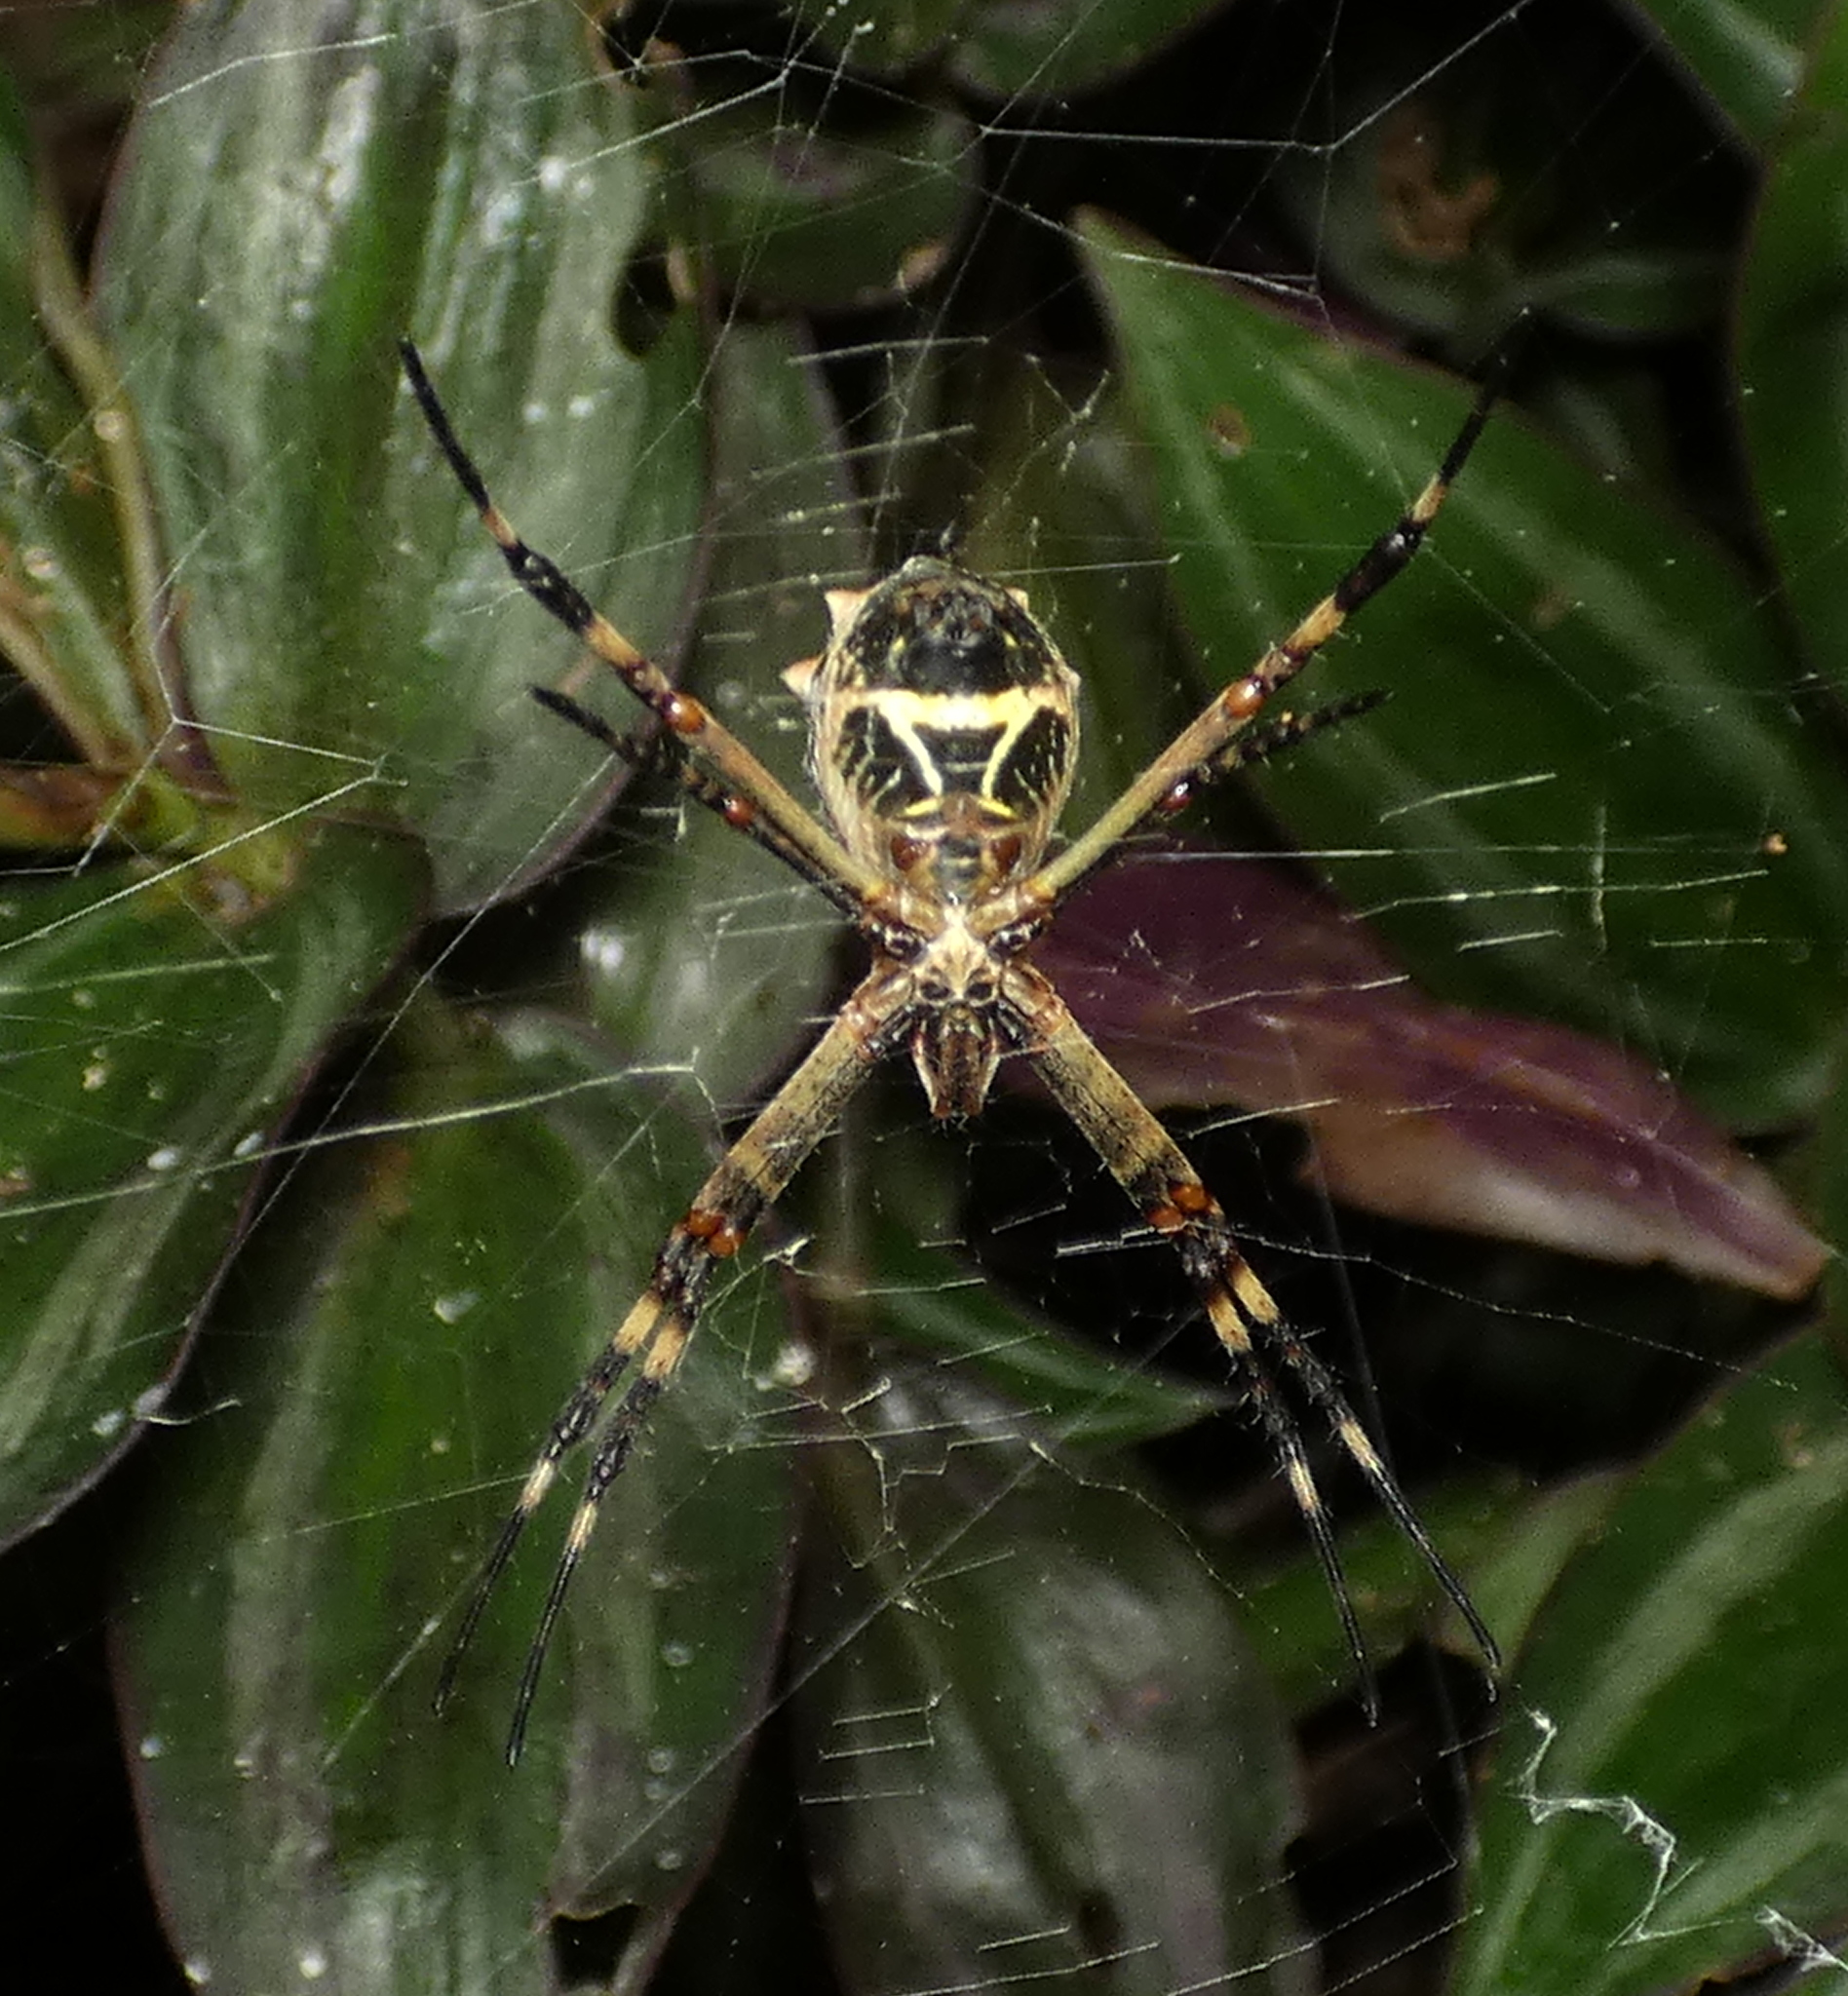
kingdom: Animalia
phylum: Arthropoda
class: Arachnida
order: Araneae
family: Araneidae
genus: Argiope
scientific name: Argiope argentata
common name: Orb weavers
